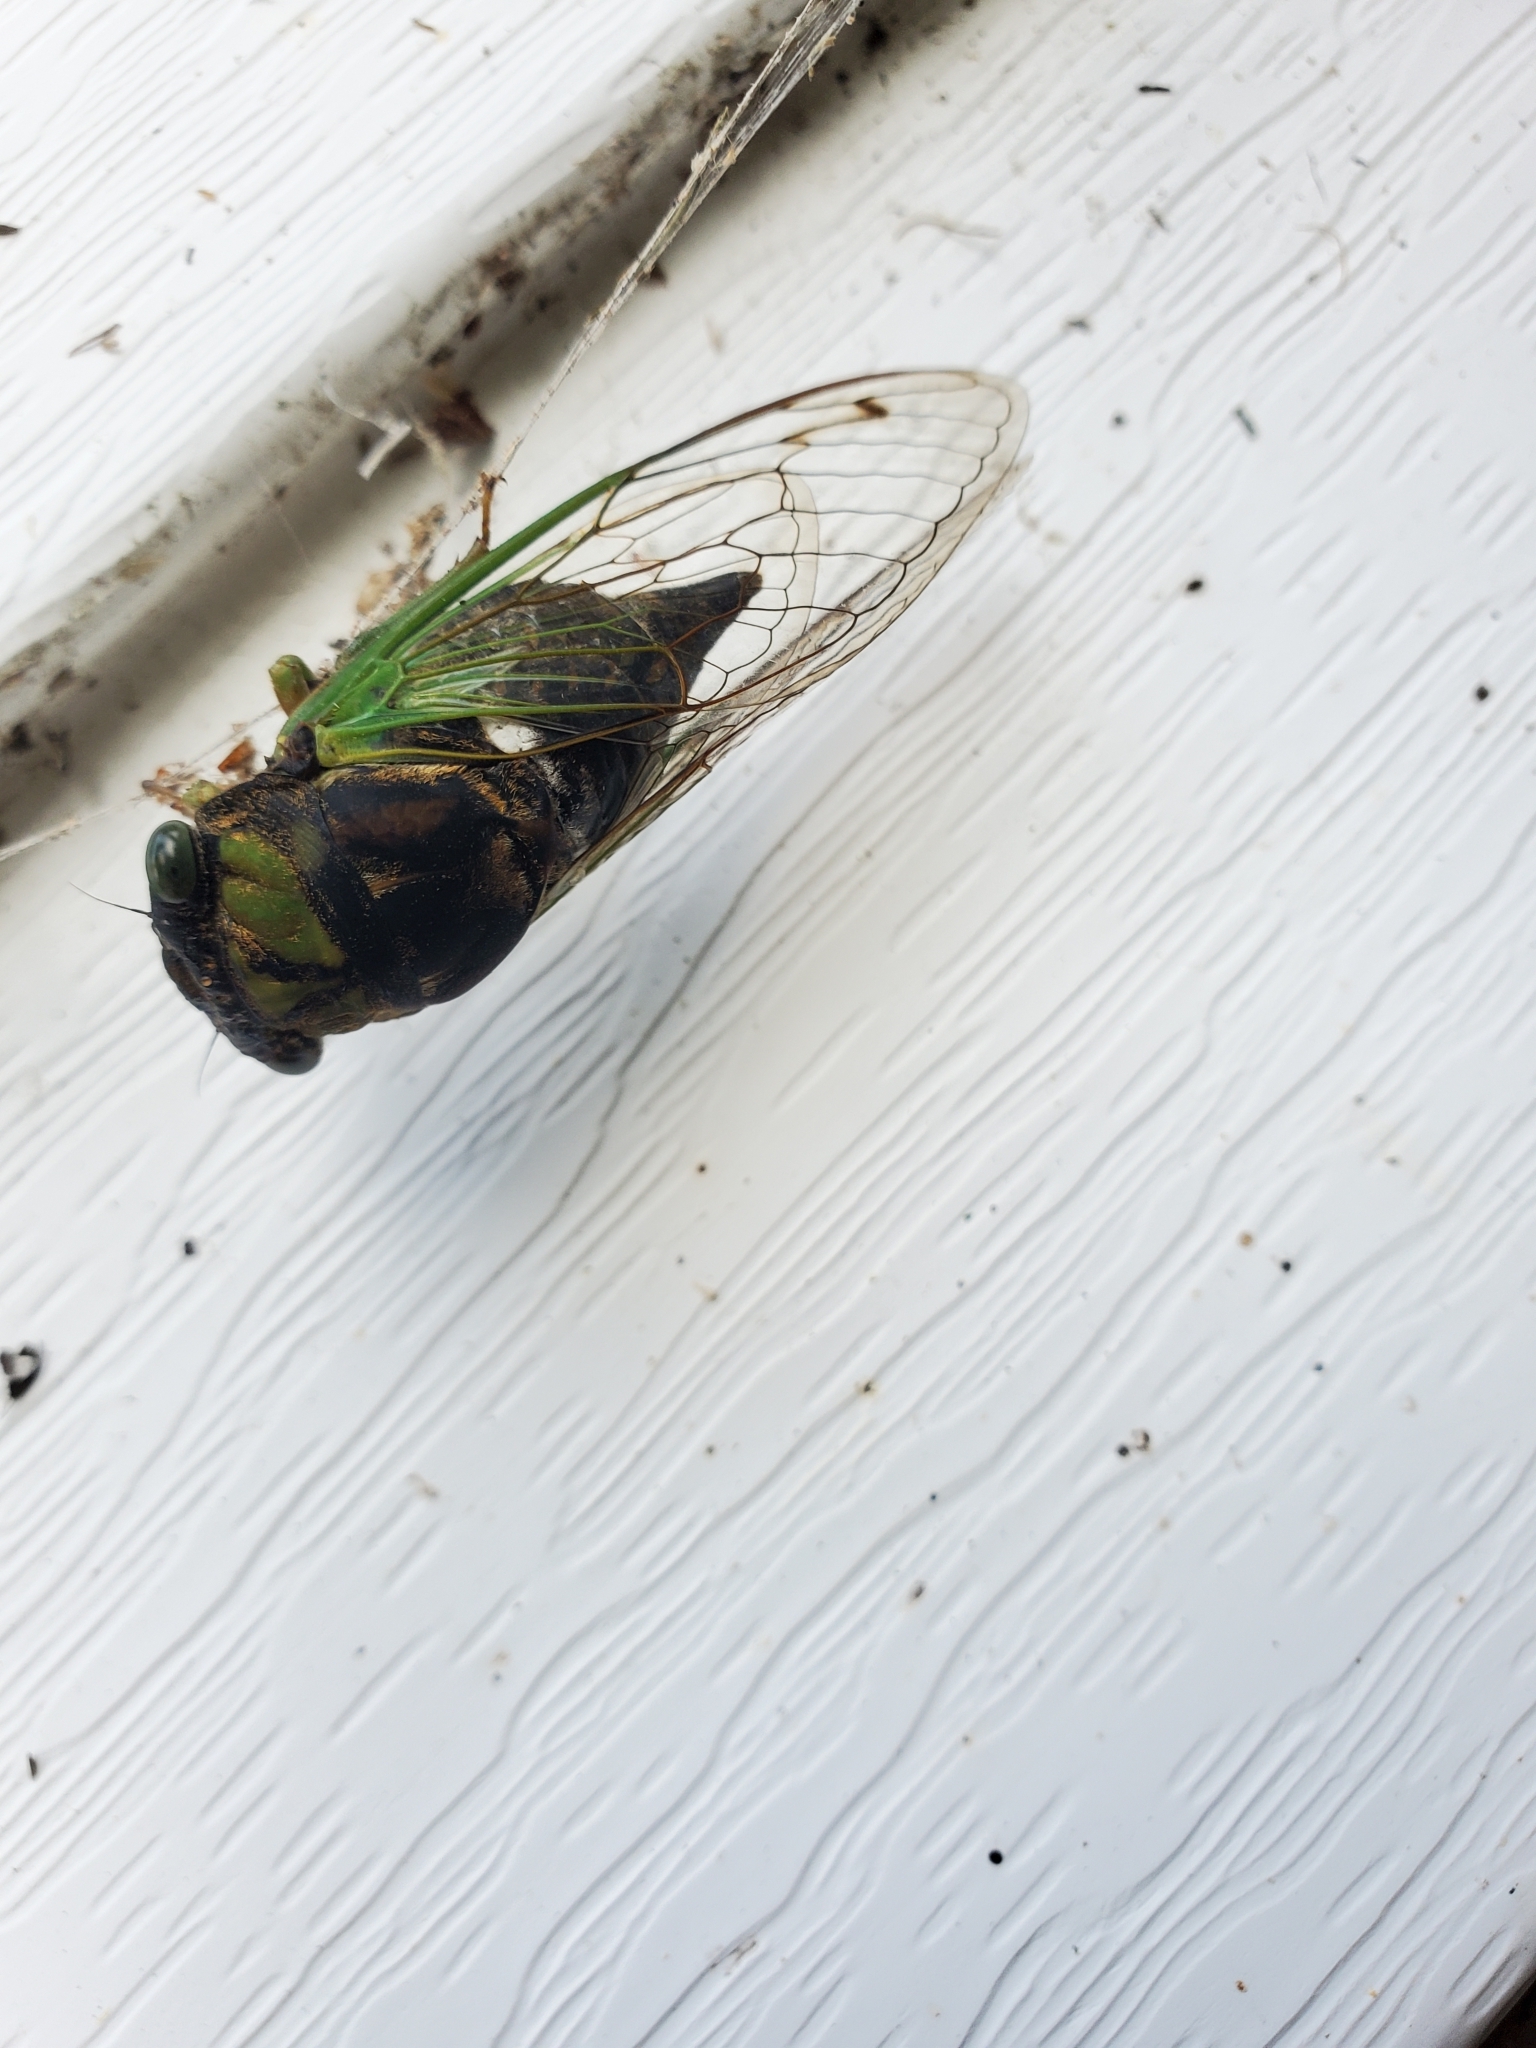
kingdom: Animalia
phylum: Arthropoda
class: Insecta
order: Hemiptera
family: Cicadidae
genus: Neotibicen
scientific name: Neotibicen tibicen
